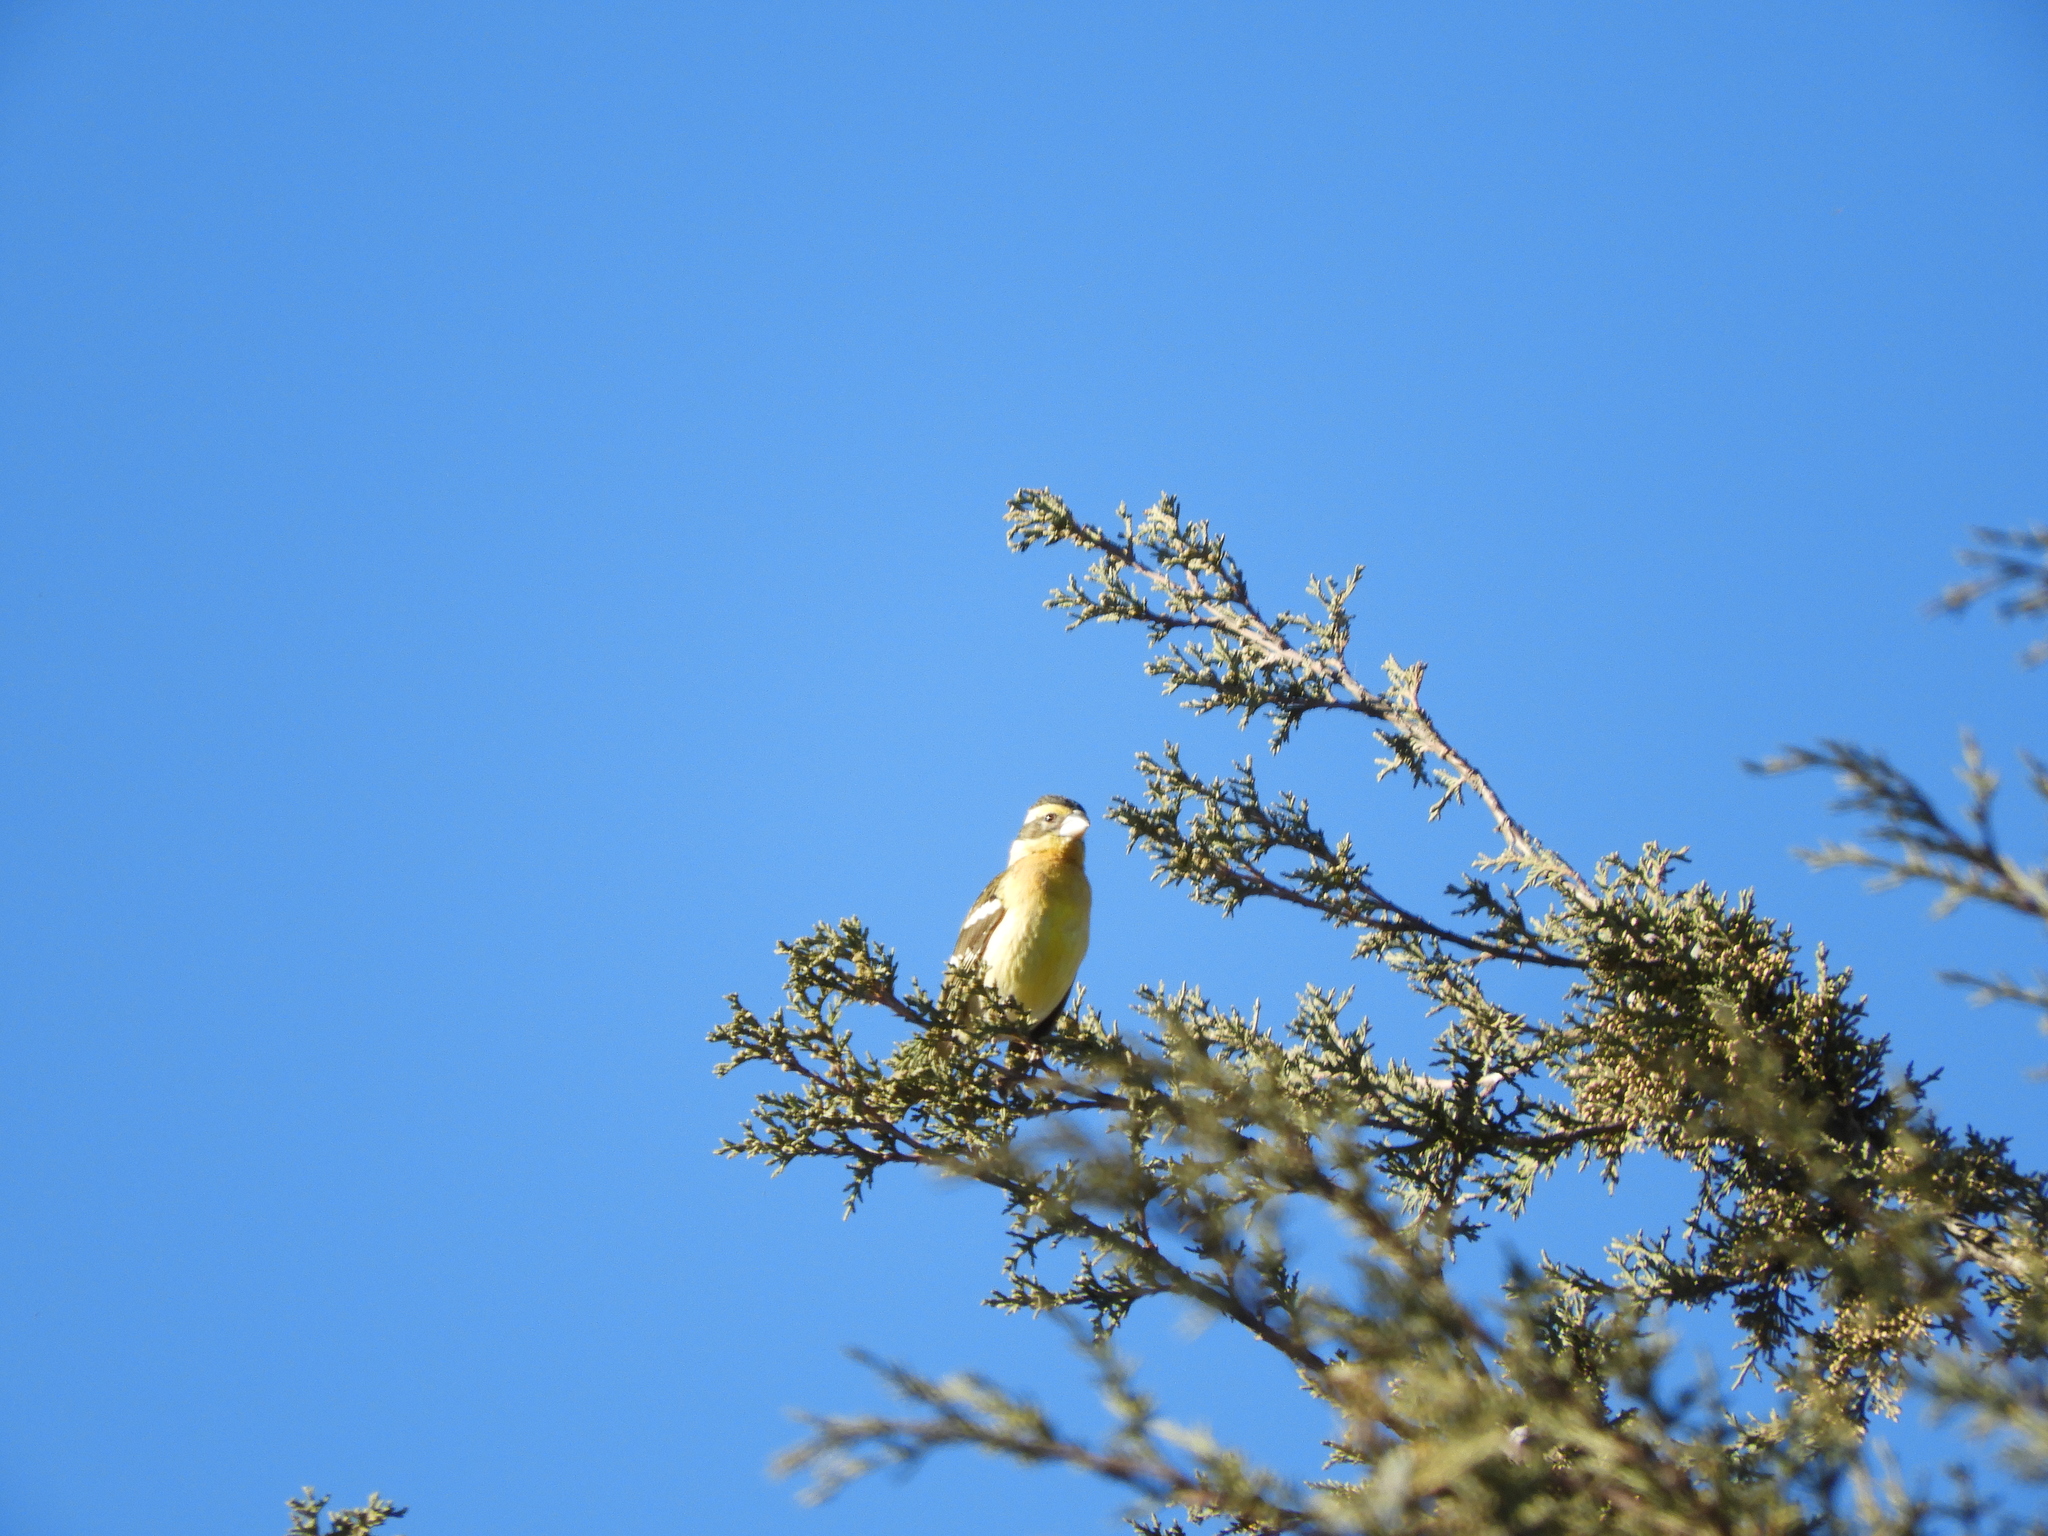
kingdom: Animalia
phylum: Chordata
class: Aves
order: Passeriformes
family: Cardinalidae
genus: Pheucticus
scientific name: Pheucticus melanocephalus
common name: Black-headed grosbeak
